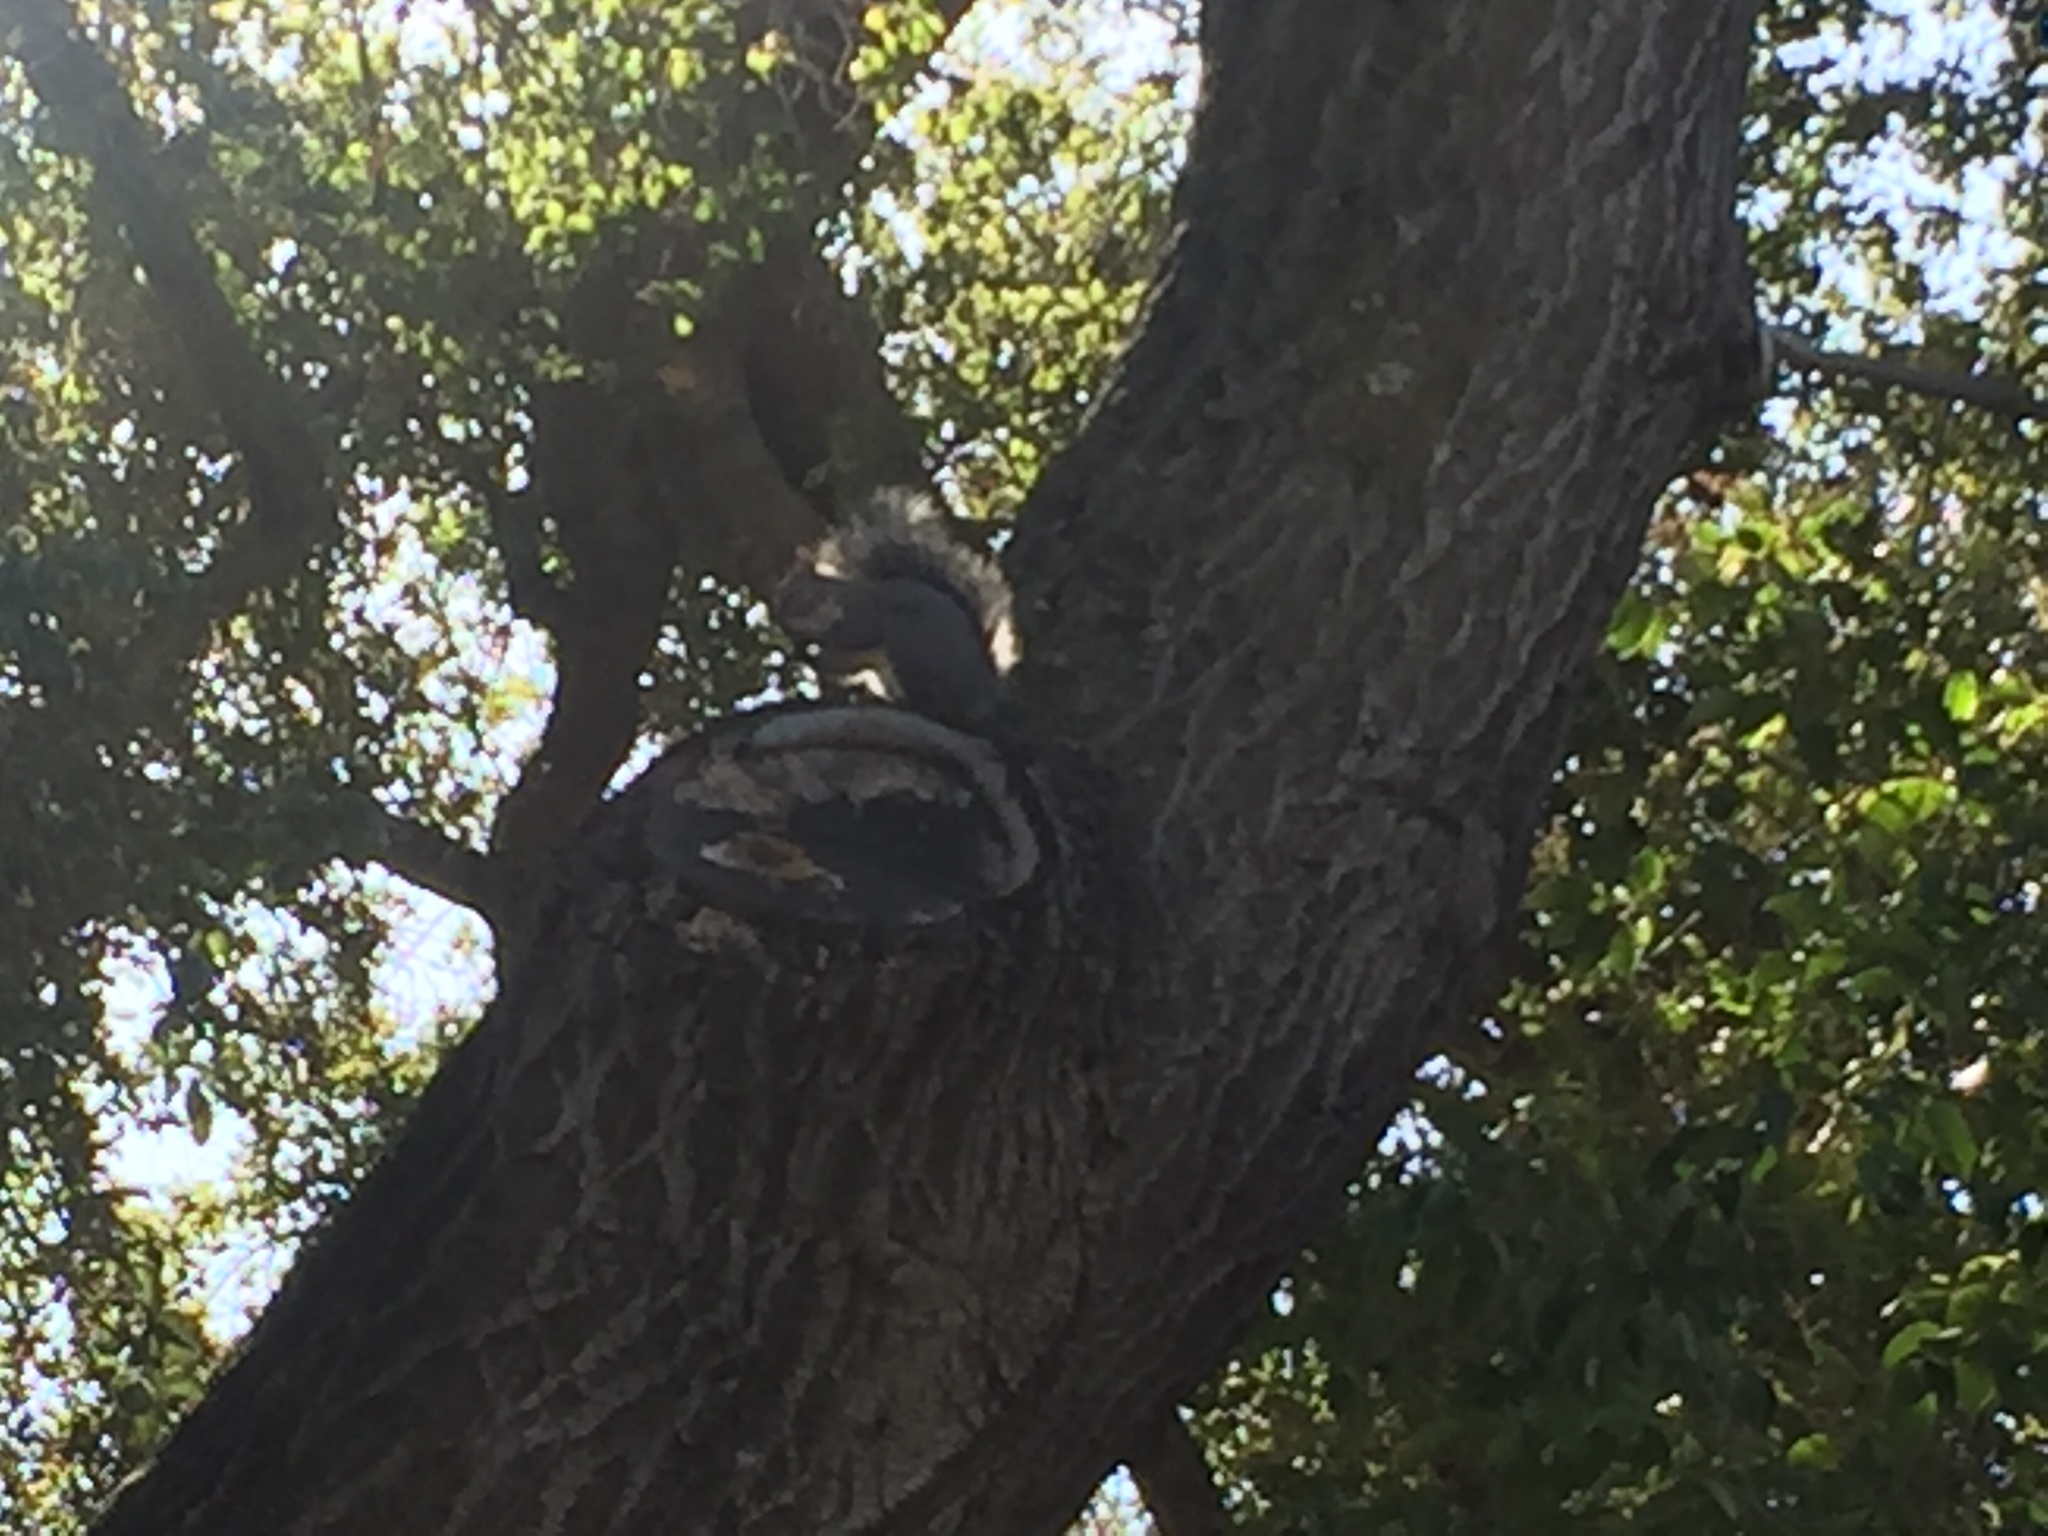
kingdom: Animalia
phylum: Chordata
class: Mammalia
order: Rodentia
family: Sciuridae
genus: Sciurus
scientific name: Sciurus griseus
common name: Western gray squirrel
